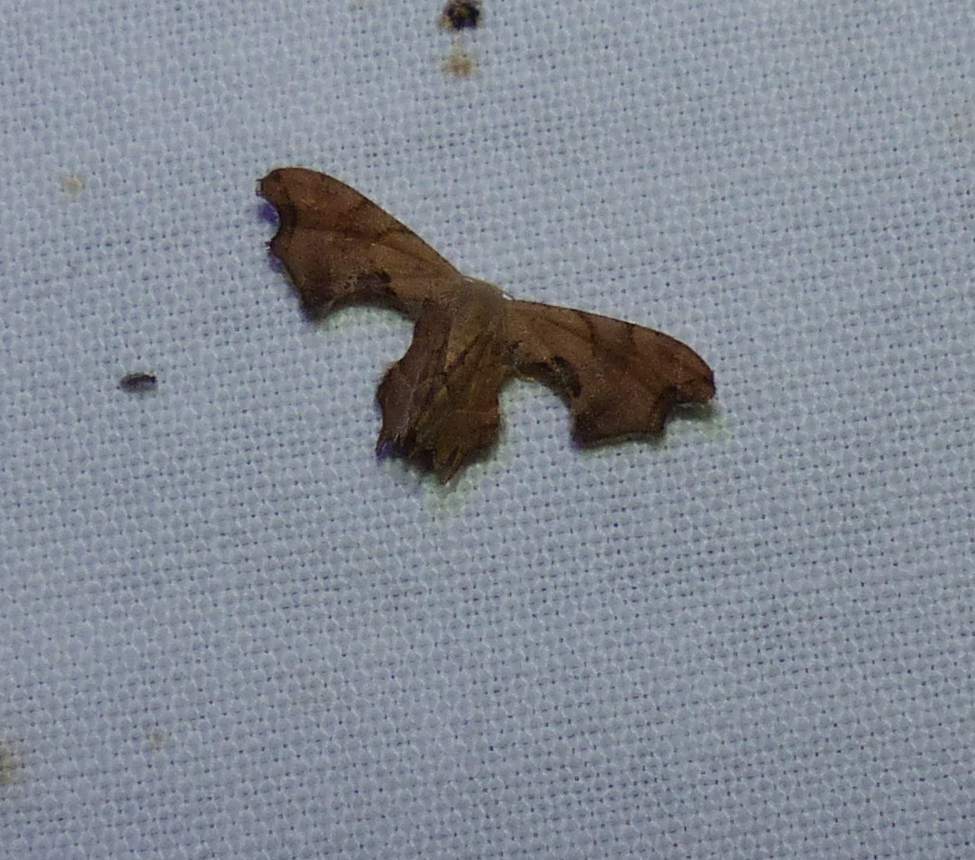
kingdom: Animalia
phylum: Arthropoda
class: Insecta
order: Lepidoptera
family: Uraniidae
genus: Epiplema
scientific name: Epiplema Calledapteryx dryopterata
